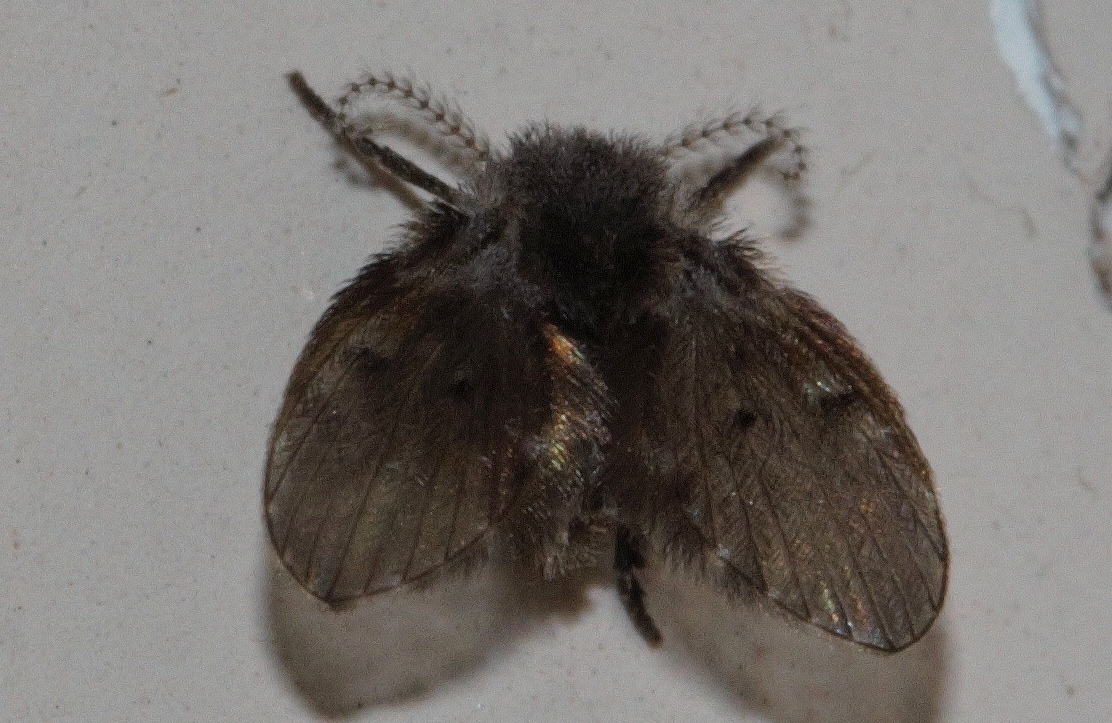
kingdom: Animalia
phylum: Arthropoda
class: Insecta
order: Diptera
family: Psychodidae
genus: Clogmia
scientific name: Clogmia albipunctatus
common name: White-spotted moth fly
